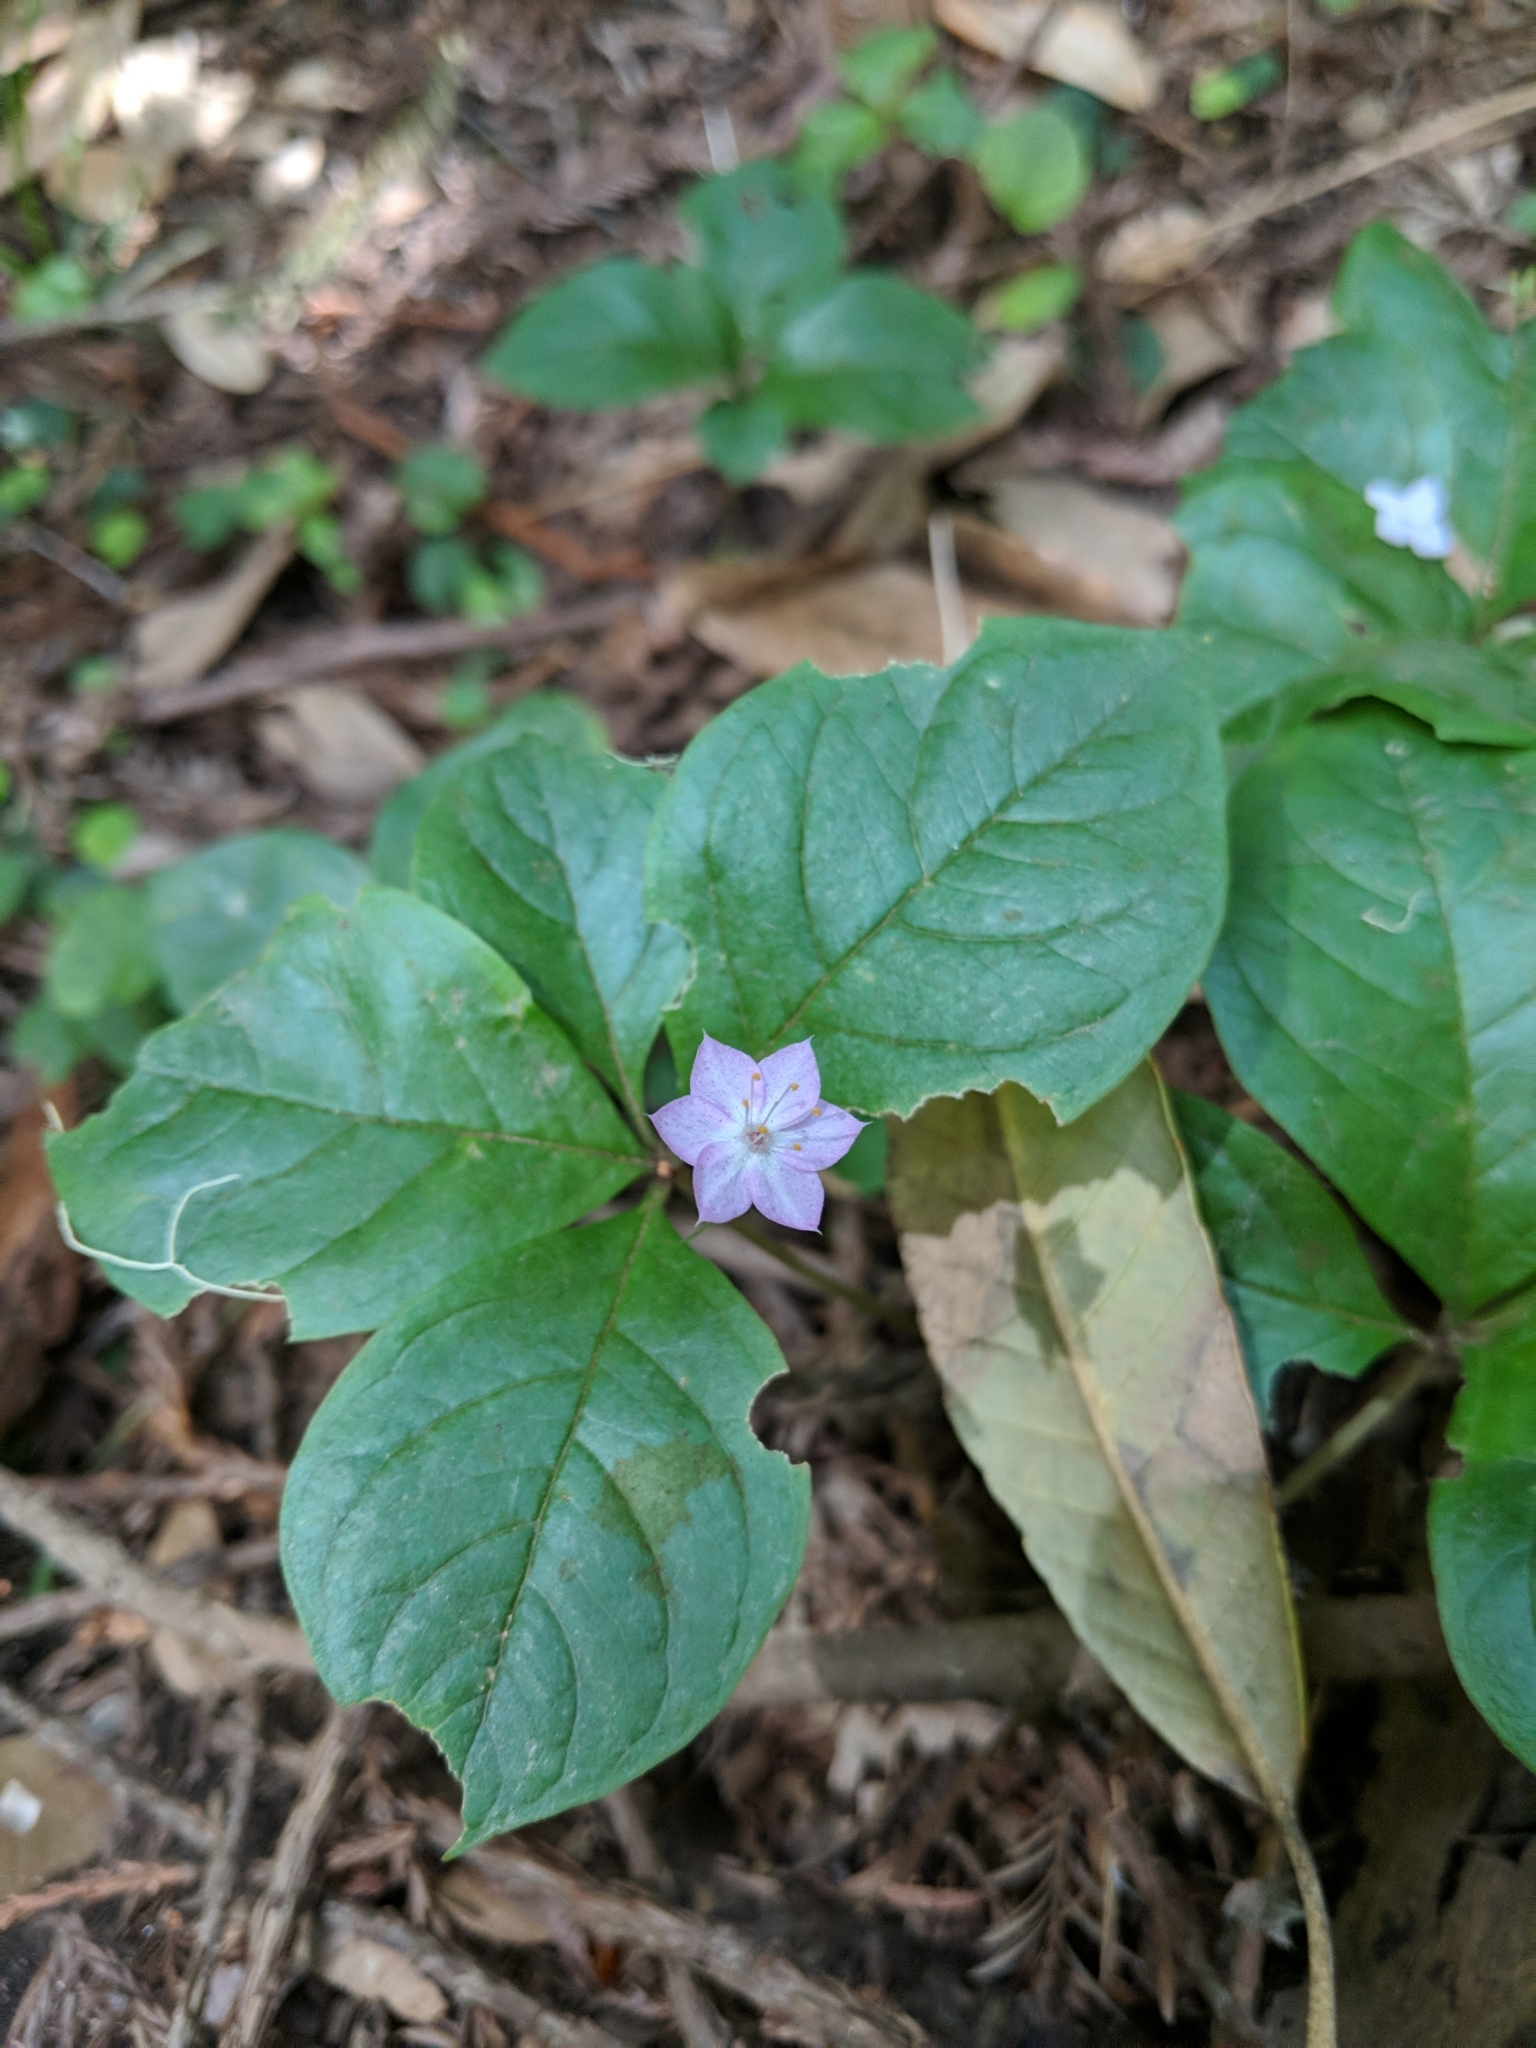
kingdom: Plantae
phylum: Tracheophyta
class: Magnoliopsida
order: Ericales
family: Primulaceae
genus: Lysimachia
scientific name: Lysimachia latifolia
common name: Pacific starflower
